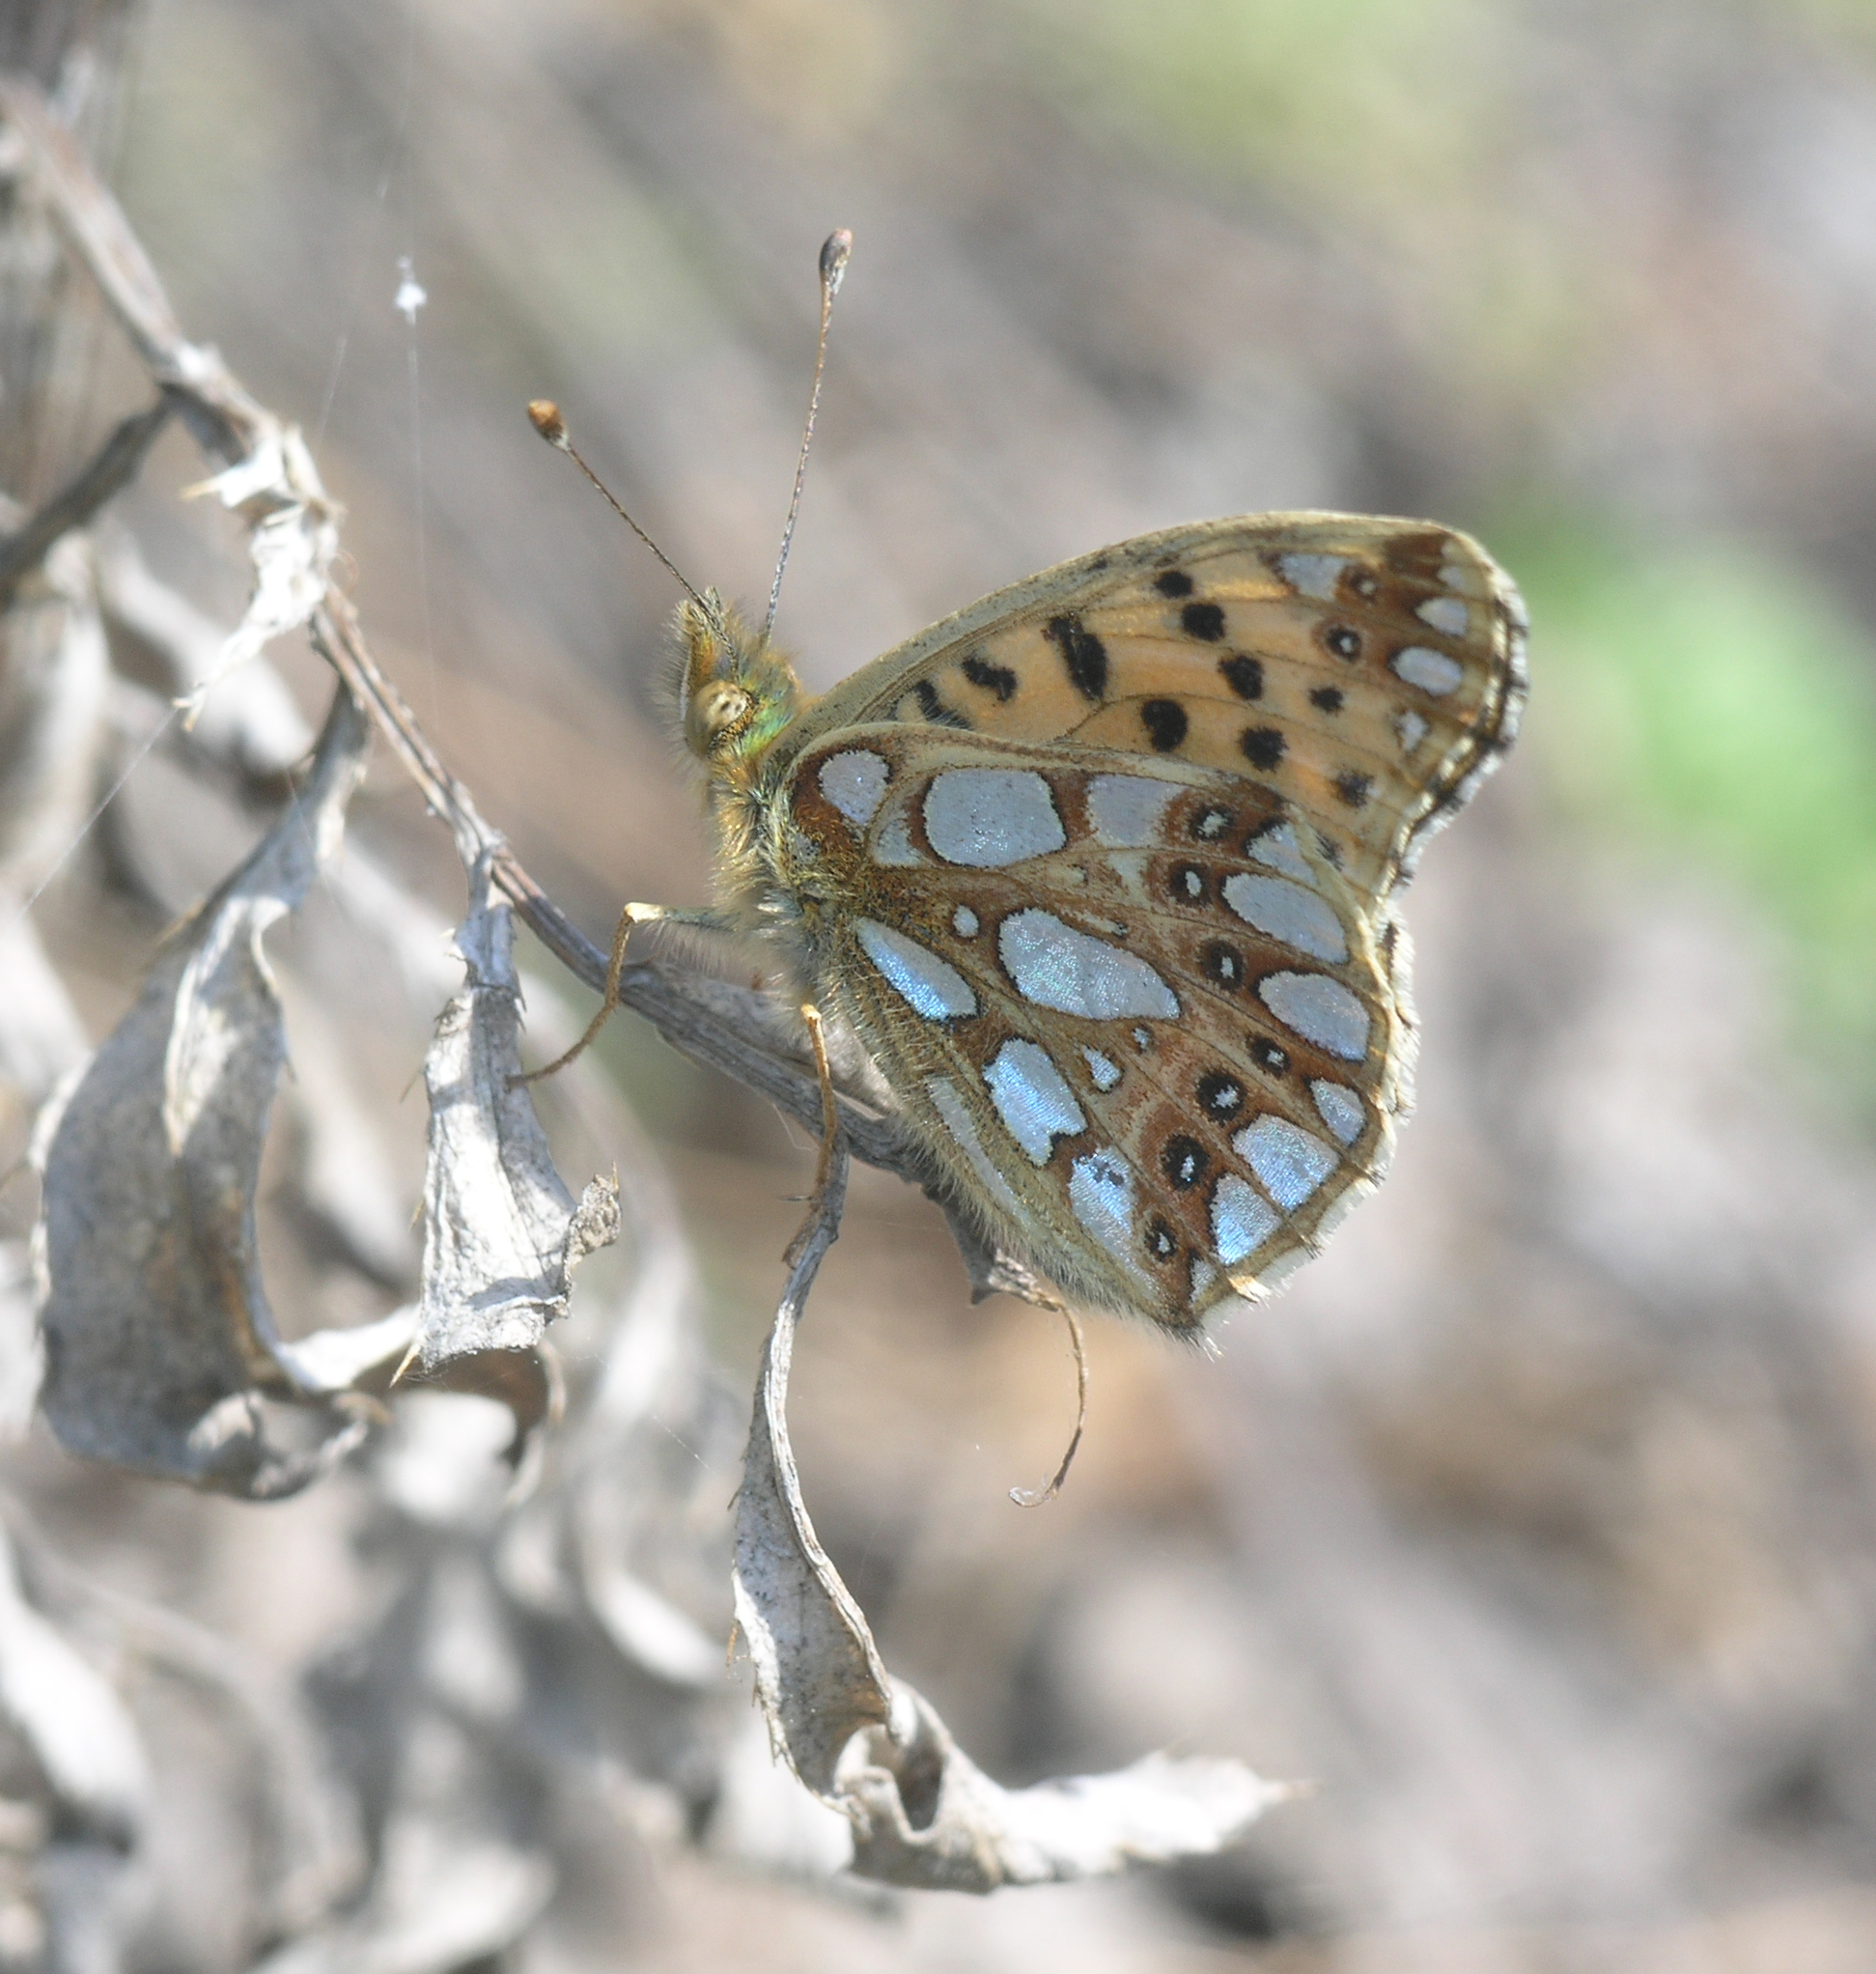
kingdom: Animalia
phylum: Arthropoda
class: Insecta
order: Lepidoptera
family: Nymphalidae
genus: Issoria
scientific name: Issoria lathonia
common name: Queen of spain fritillary
